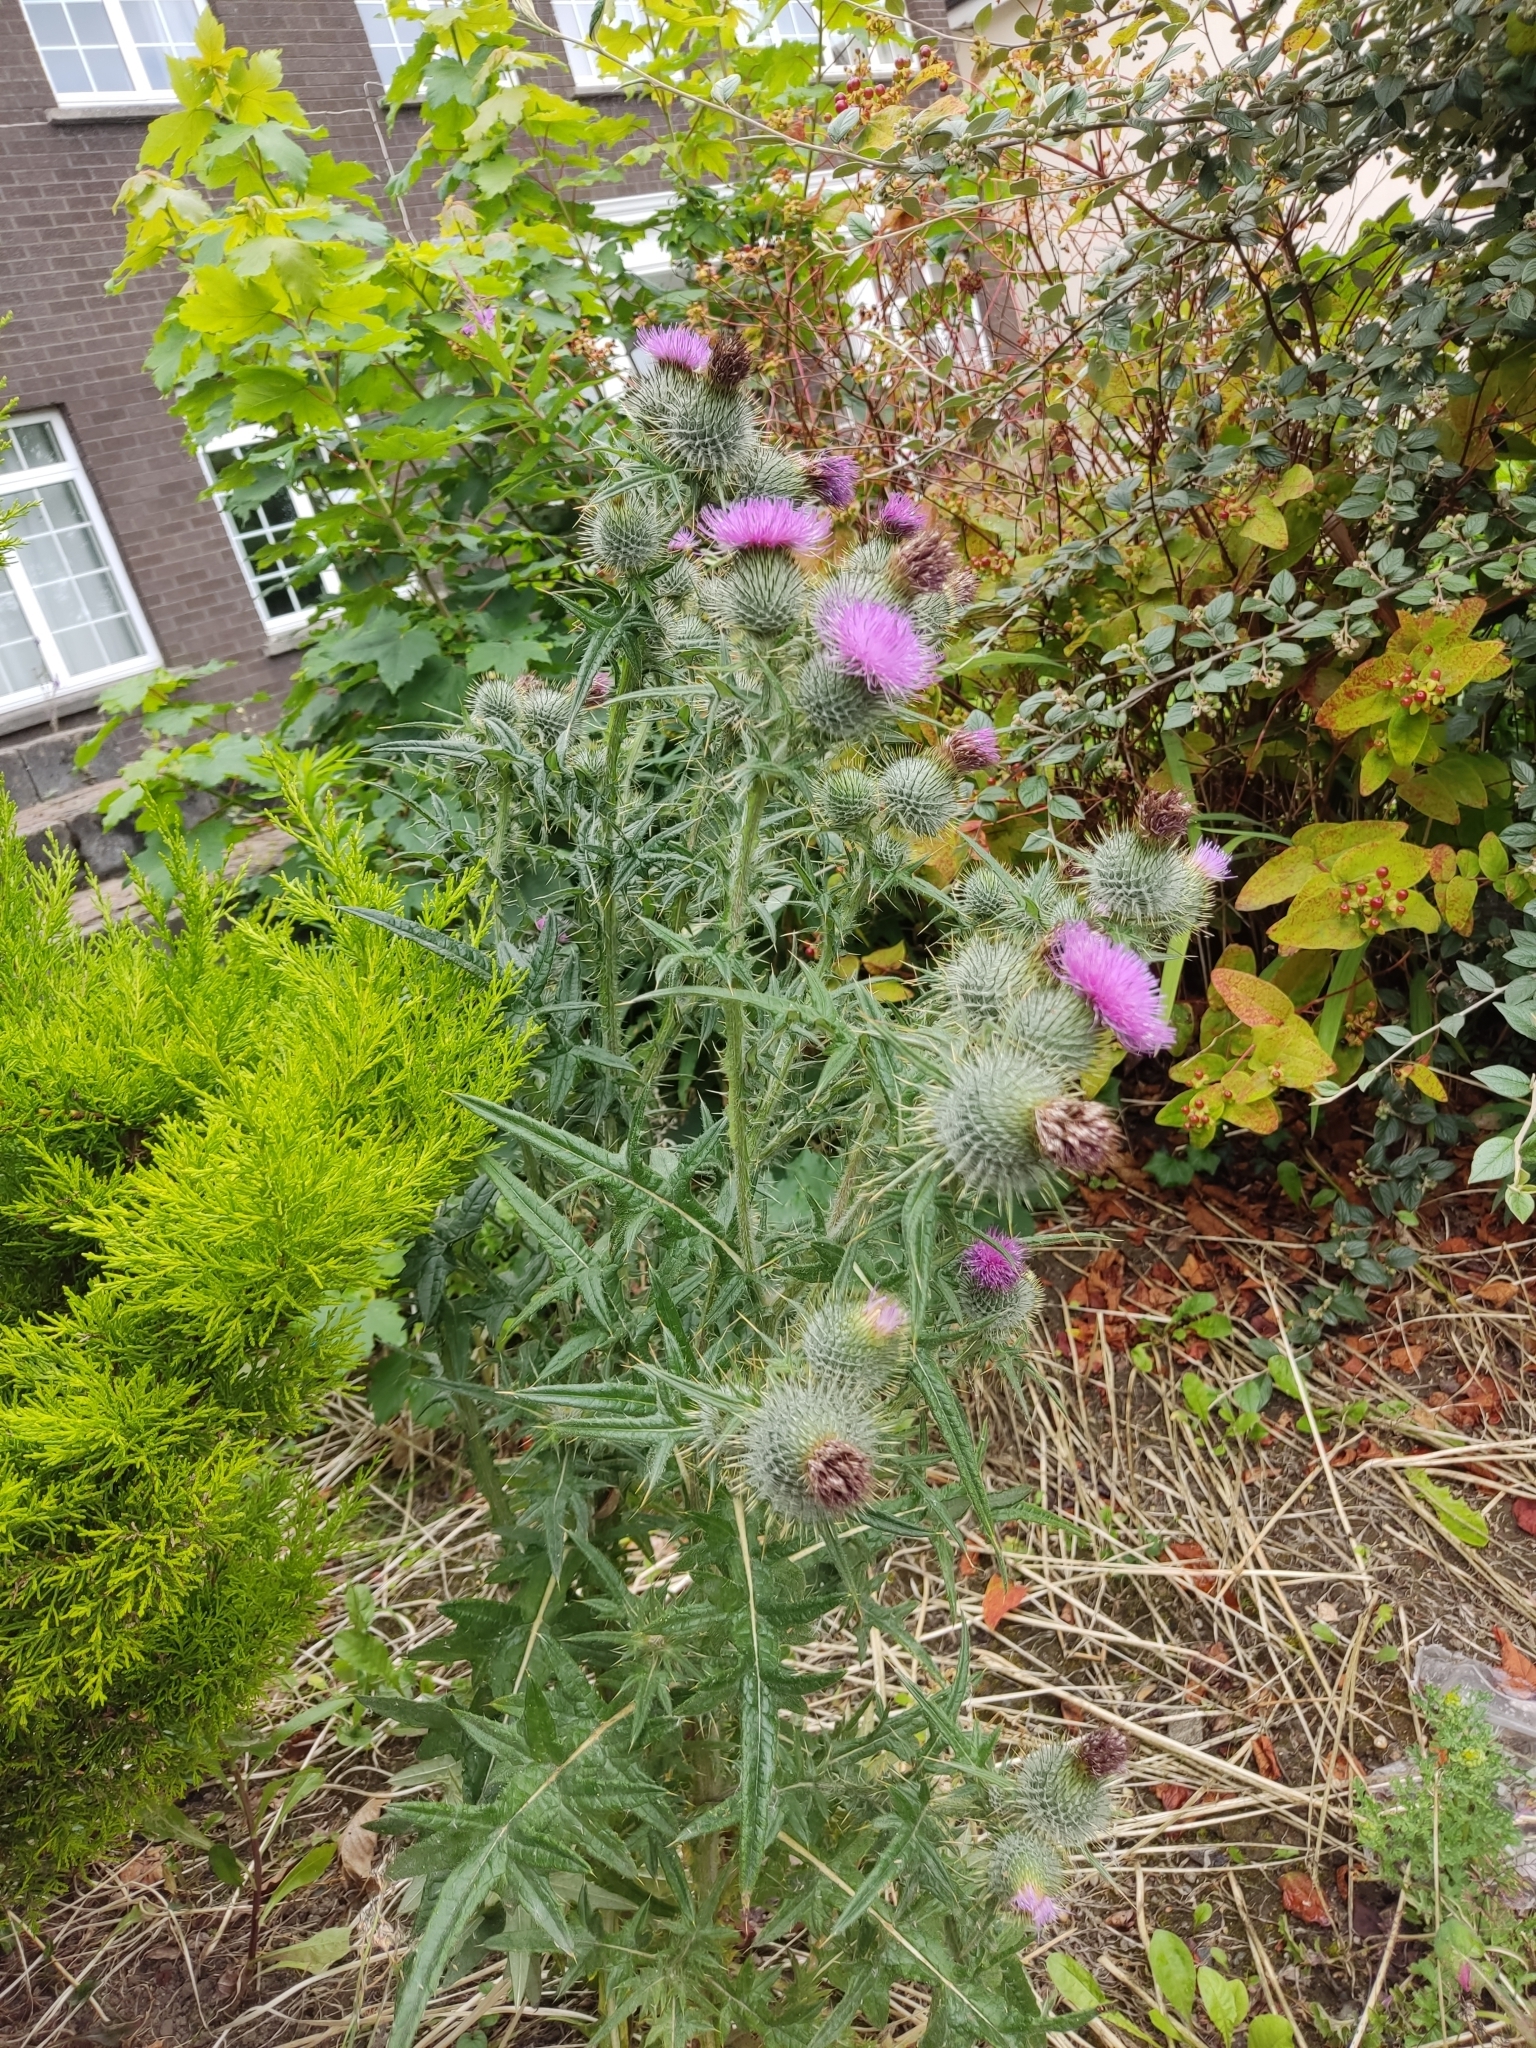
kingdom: Plantae
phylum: Tracheophyta
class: Magnoliopsida
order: Asterales
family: Asteraceae
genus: Cirsium
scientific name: Cirsium vulgare
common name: Bull thistle
